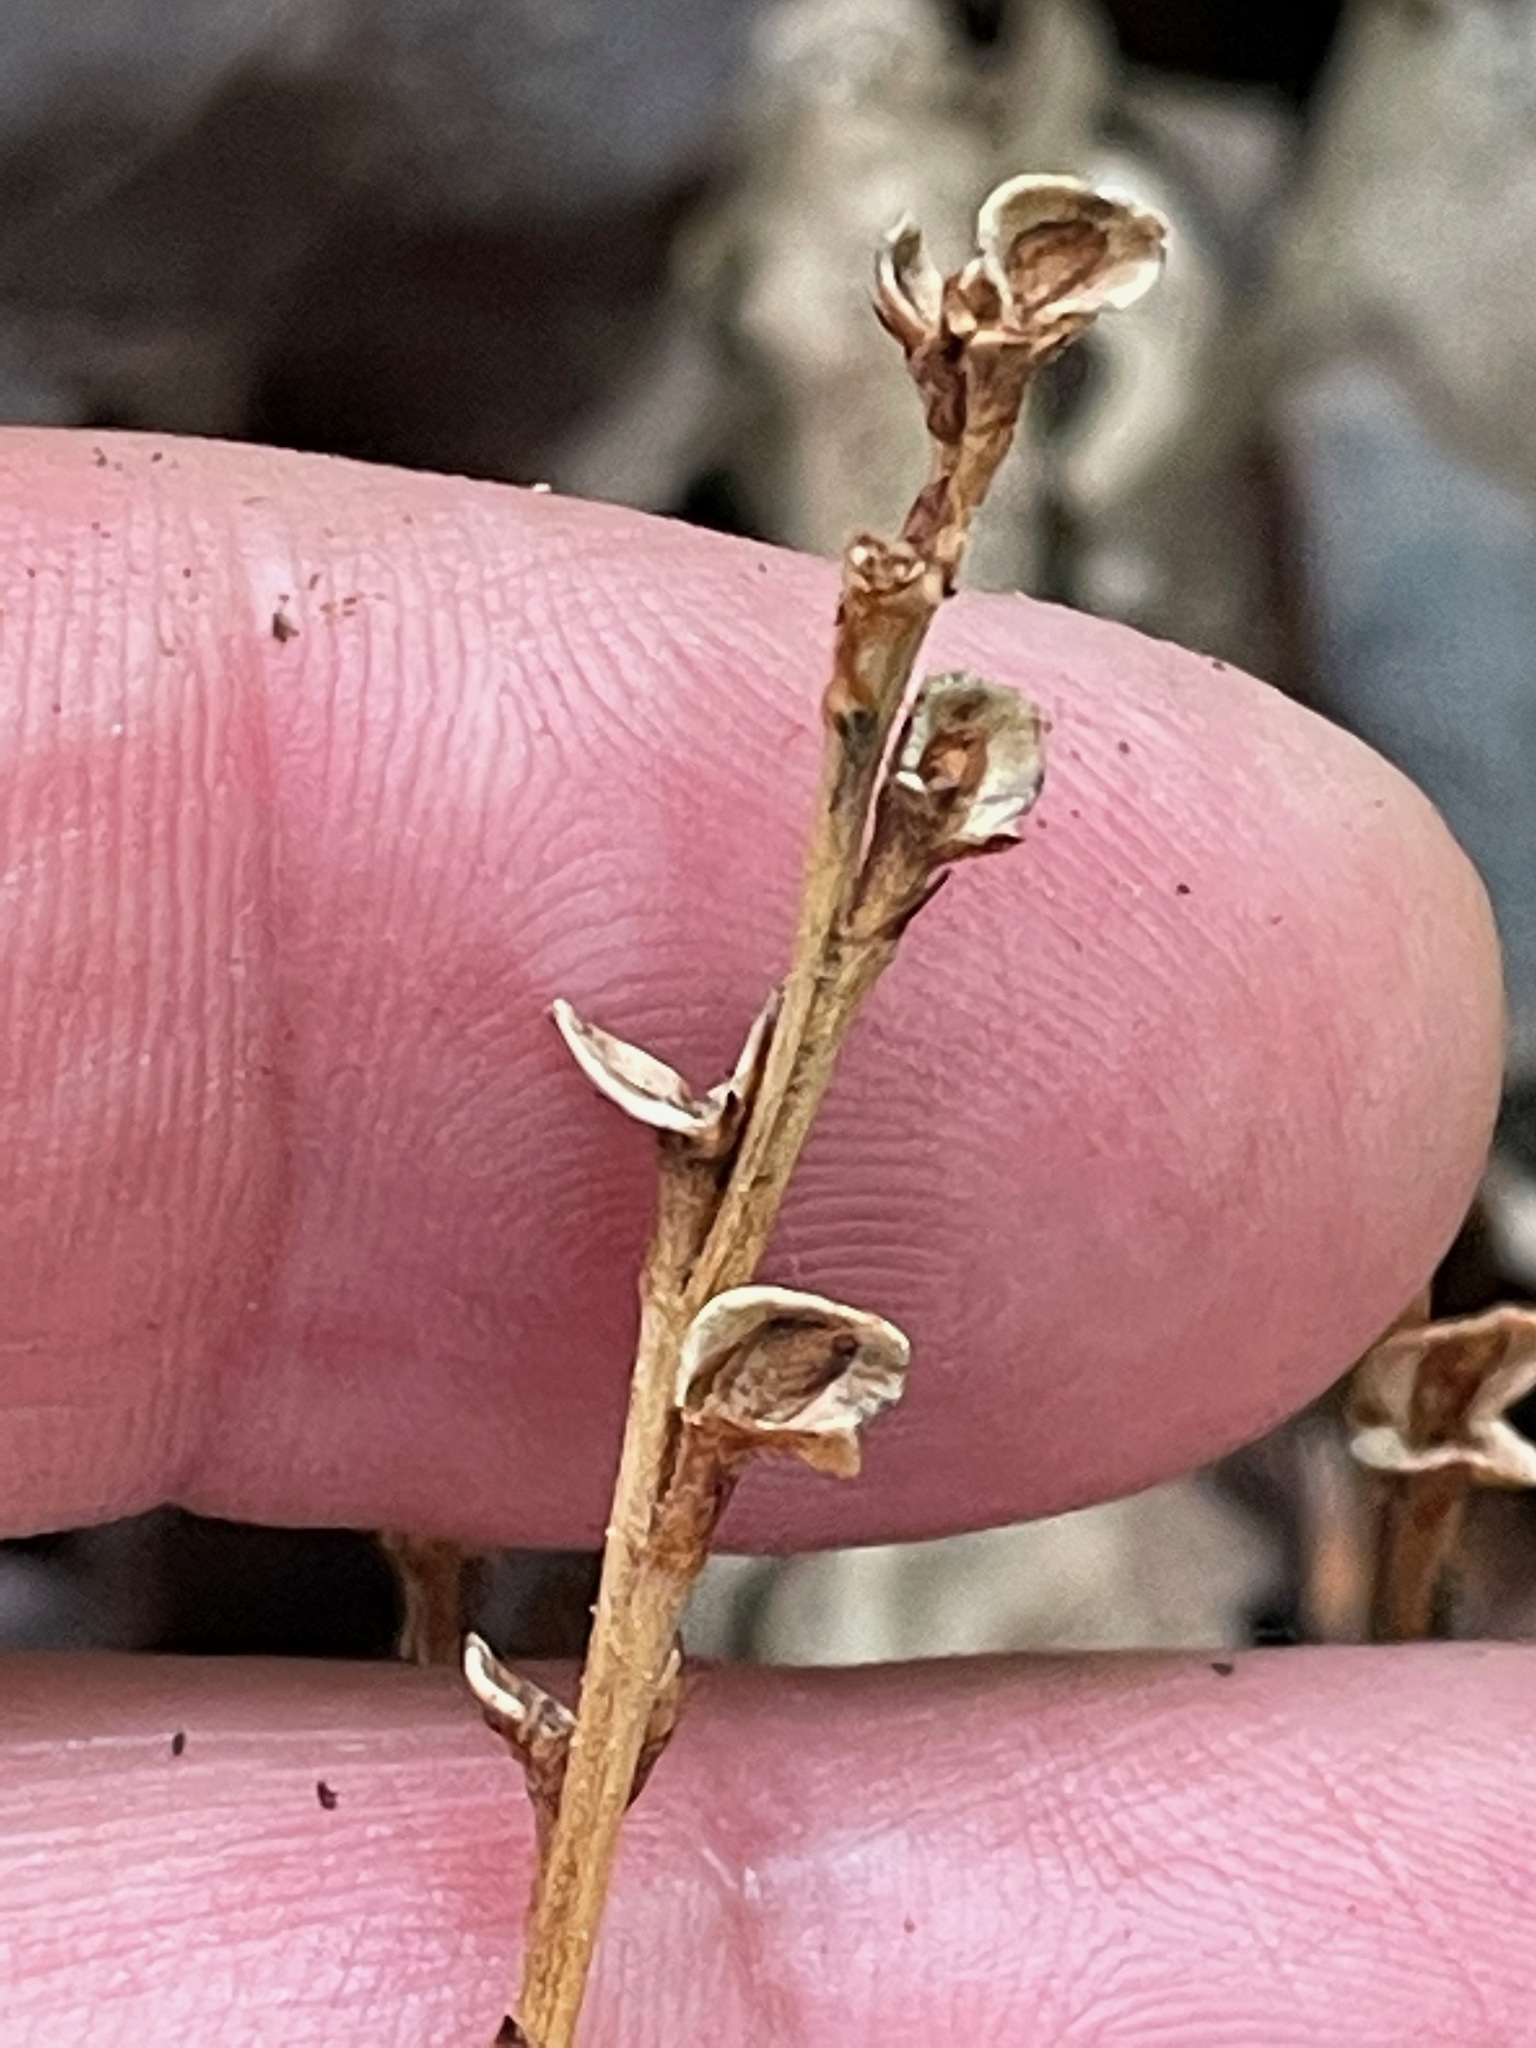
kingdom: Plantae
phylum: Tracheophyta
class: Magnoliopsida
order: Lamiales
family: Orobanchaceae
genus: Epifagus
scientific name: Epifagus virginiana
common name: Beechdrops
